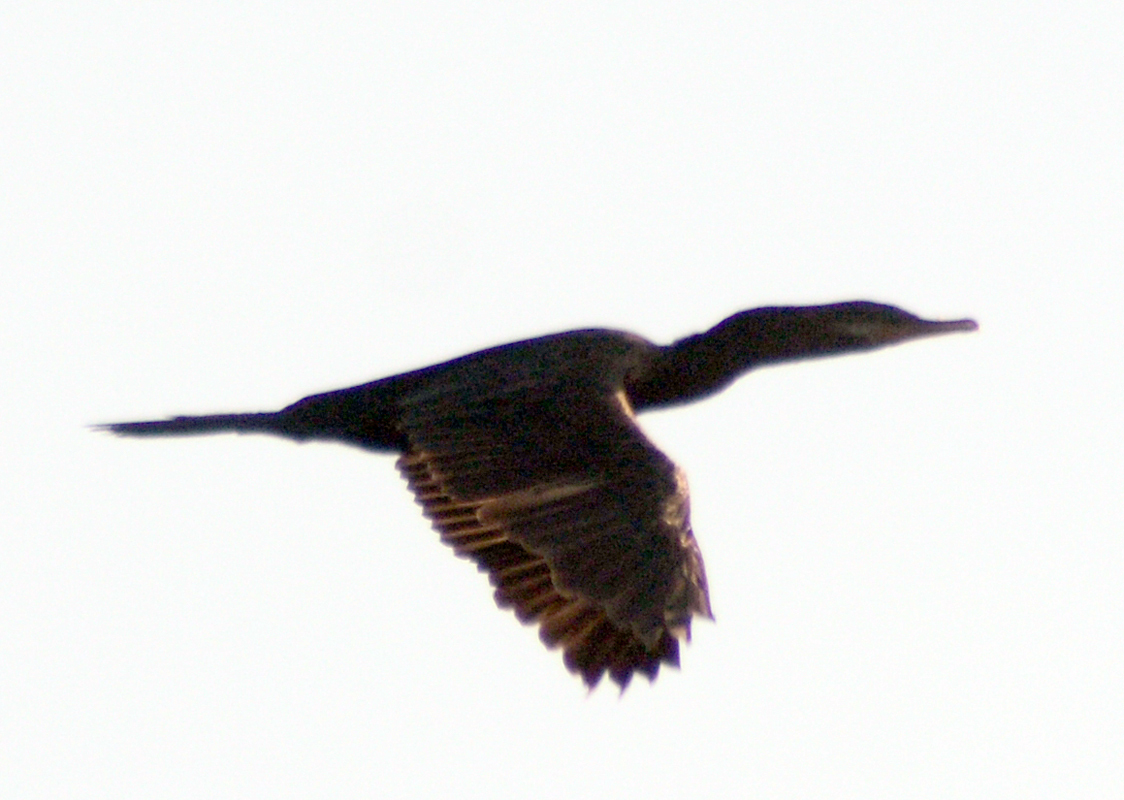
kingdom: Animalia
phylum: Chordata
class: Aves
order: Suliformes
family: Phalacrocoracidae
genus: Phalacrocorax
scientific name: Phalacrocorax brasilianus
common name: Neotropic cormorant
